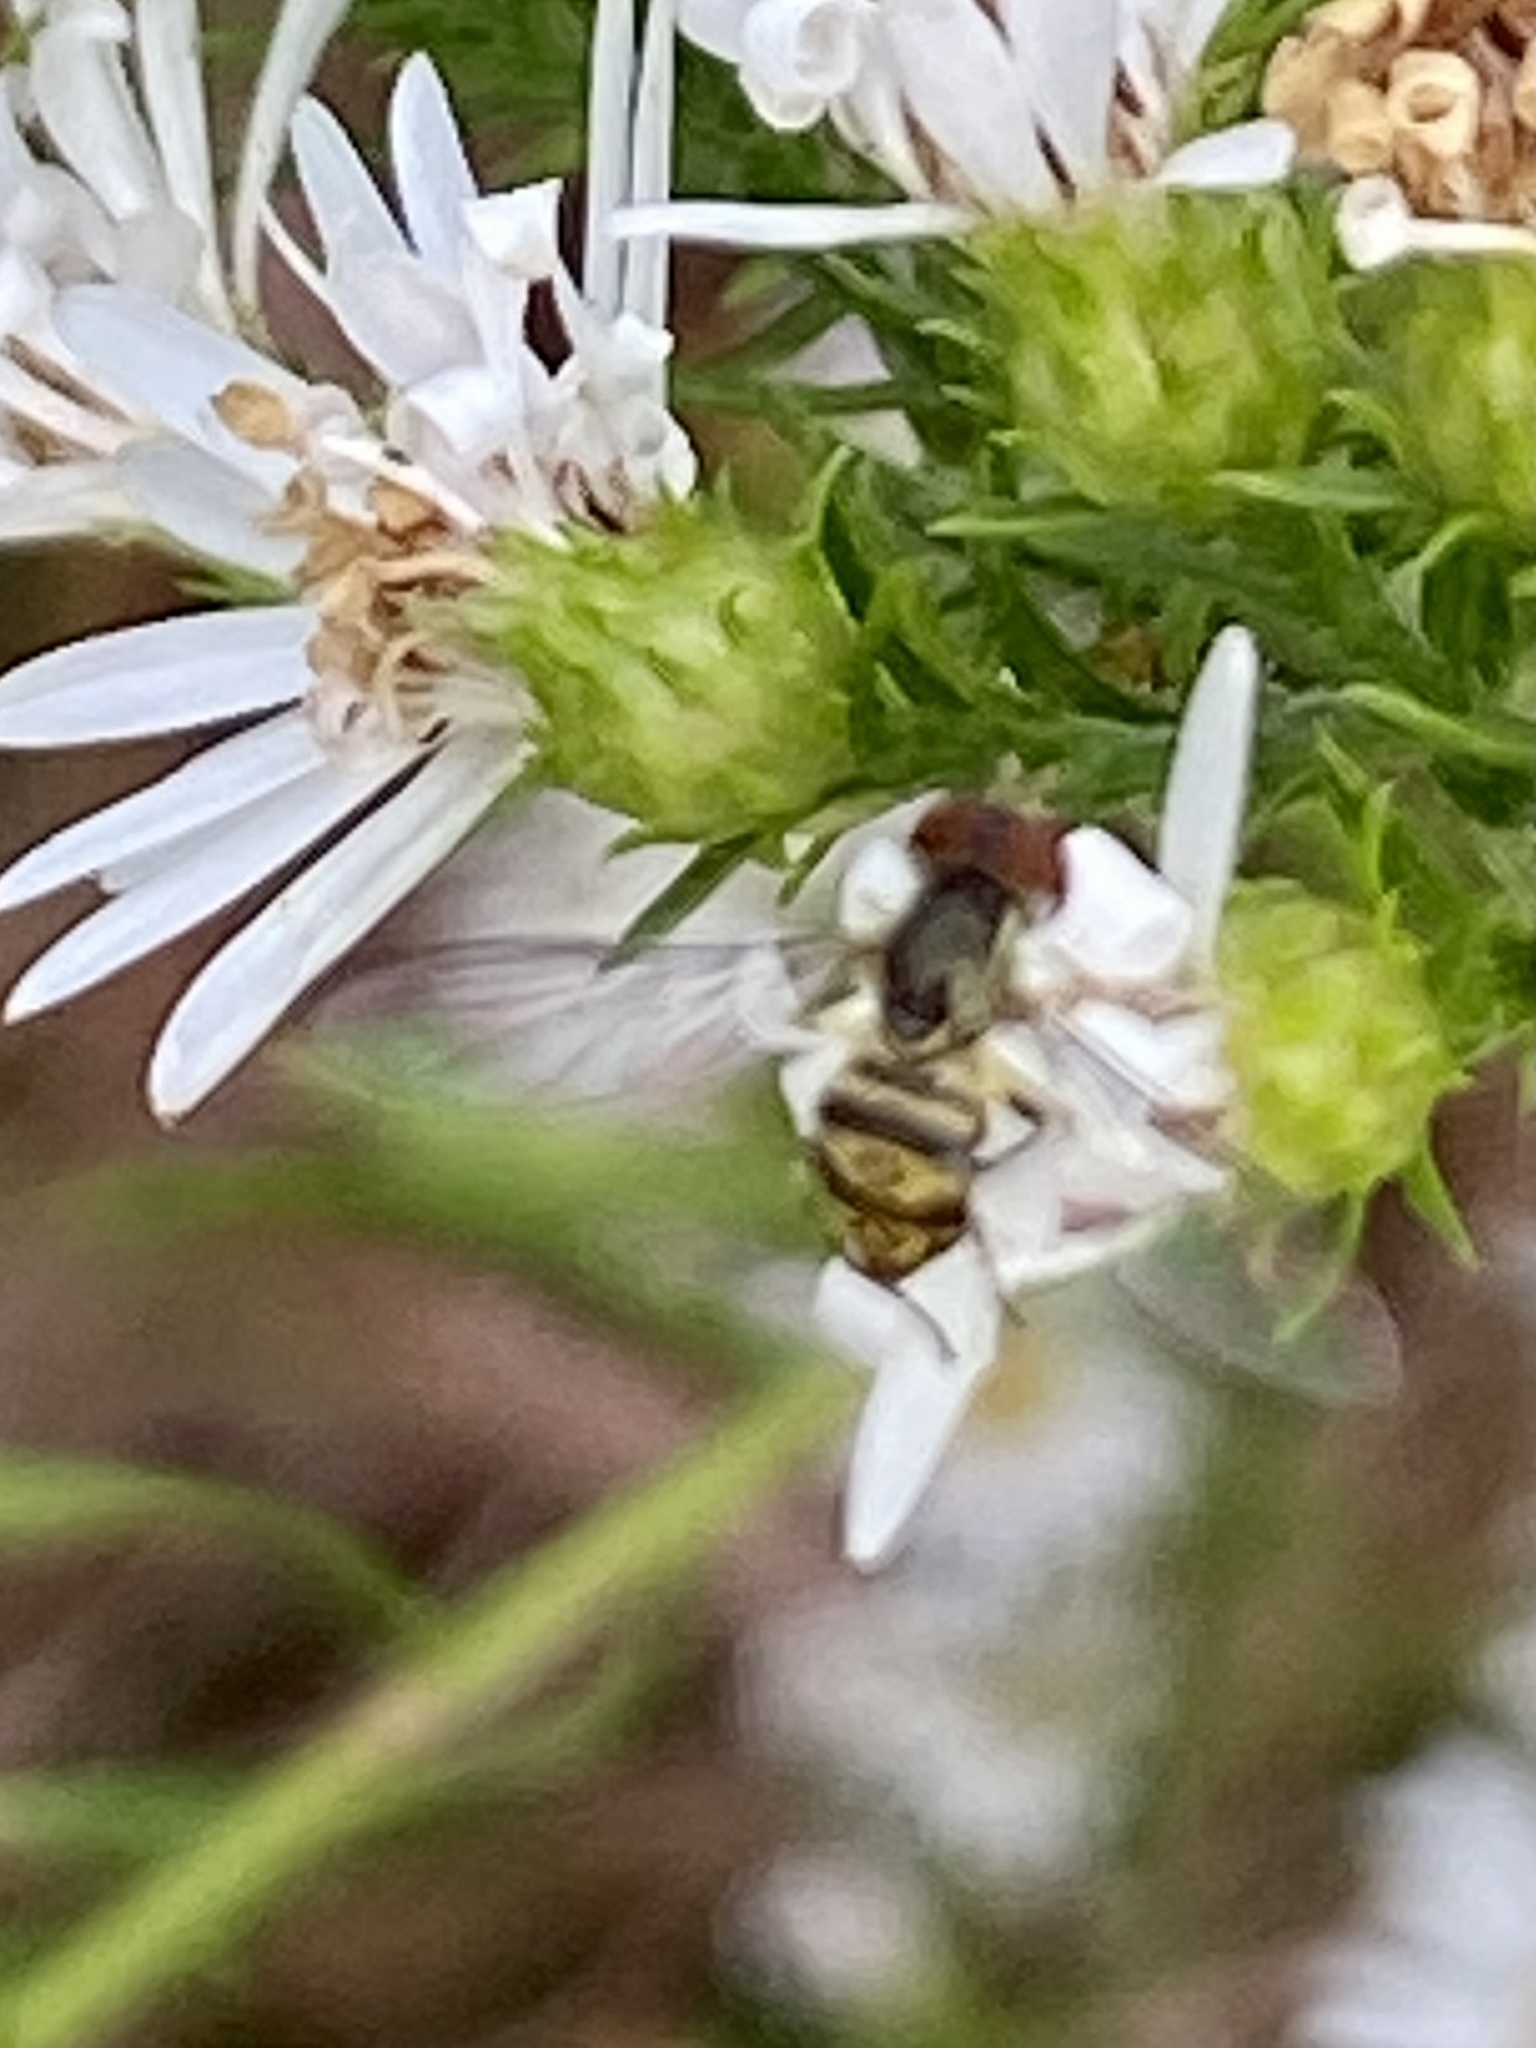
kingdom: Animalia
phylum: Arthropoda
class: Insecta
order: Diptera
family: Syrphidae
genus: Toxomerus
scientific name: Toxomerus geminatus
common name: Eastern calligrapher
